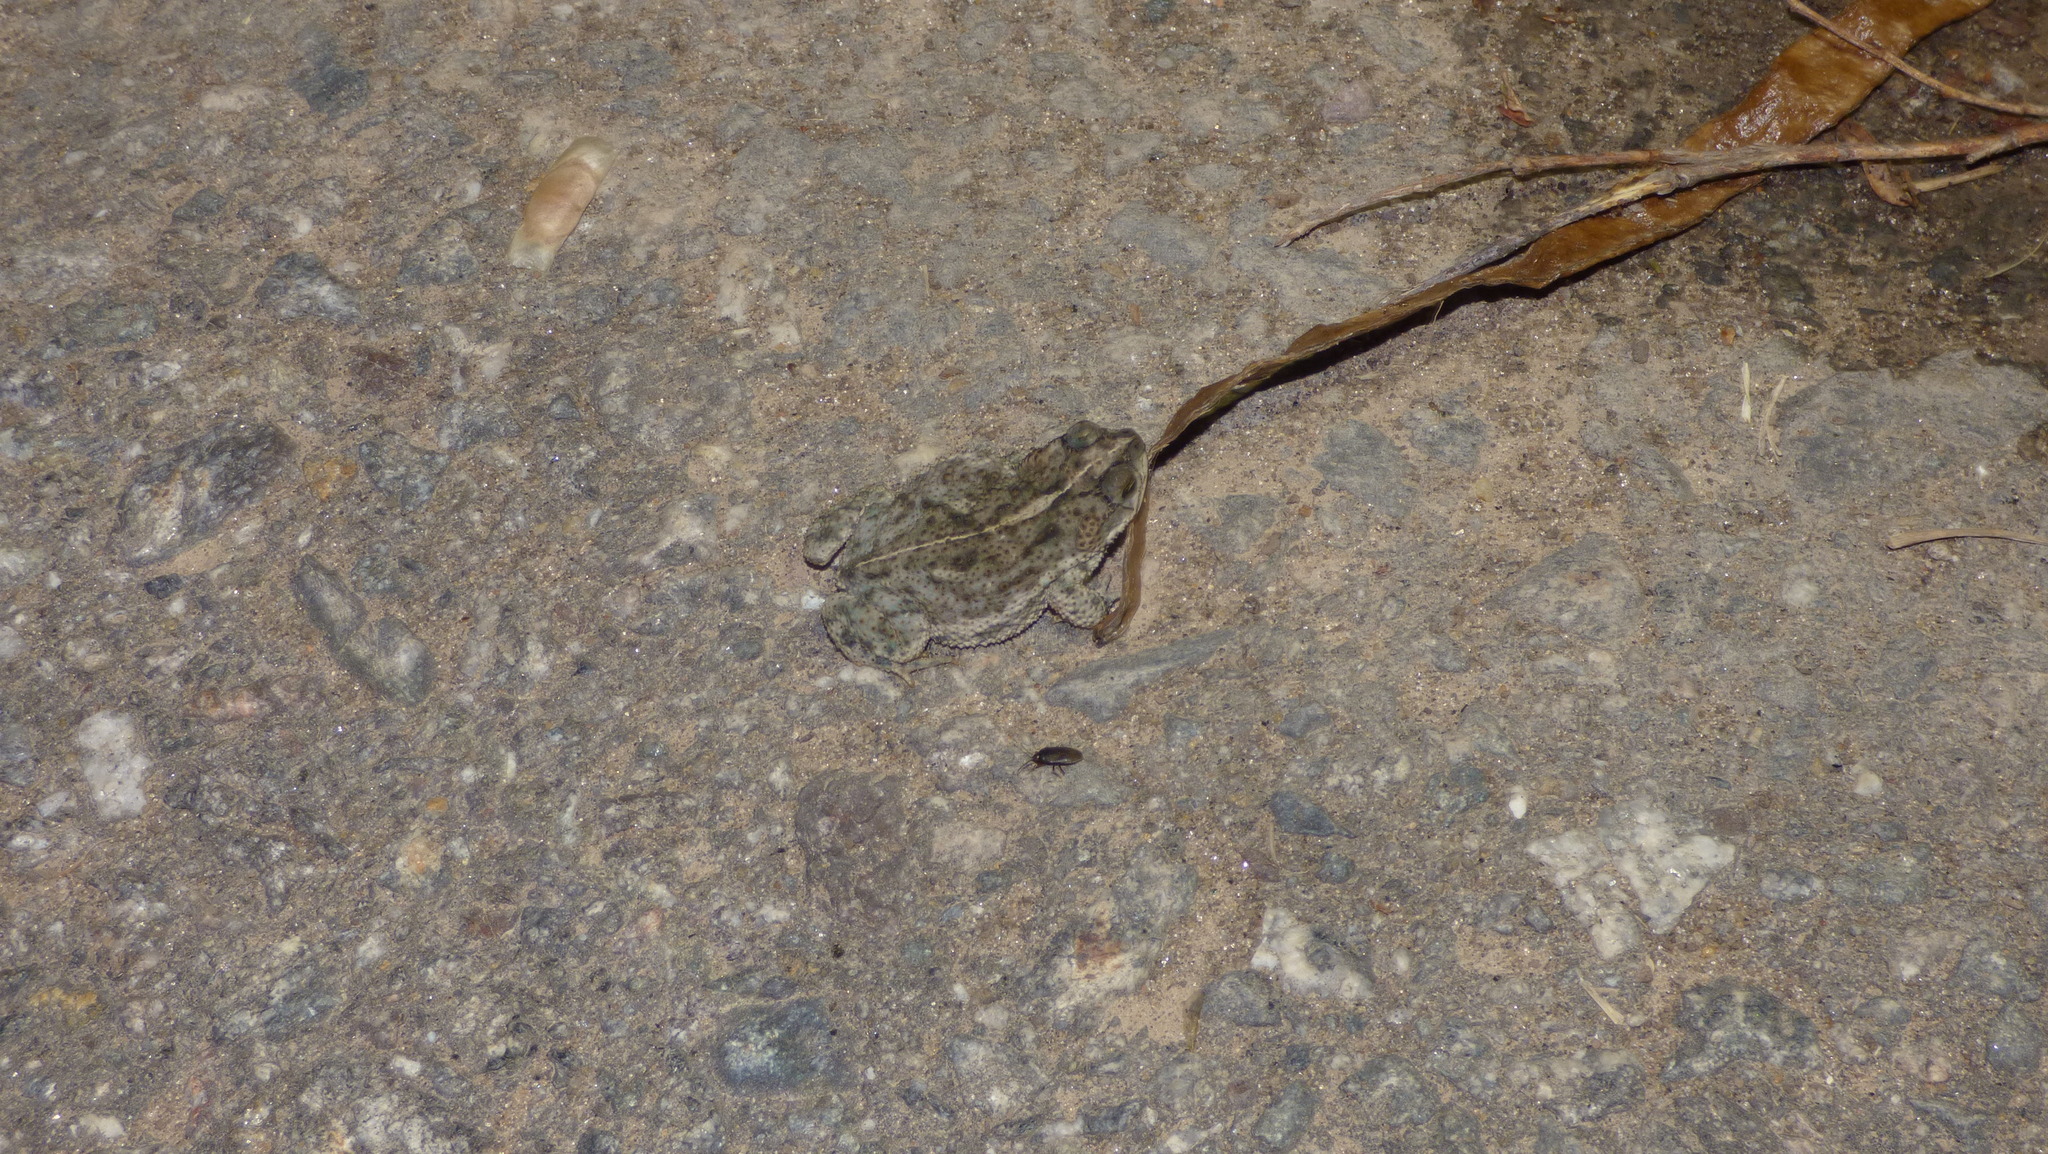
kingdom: Animalia
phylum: Chordata
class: Amphibia
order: Anura
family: Bufonidae
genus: Rhinella
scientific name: Rhinella dorbignyi
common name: D´orbigny’s toad
